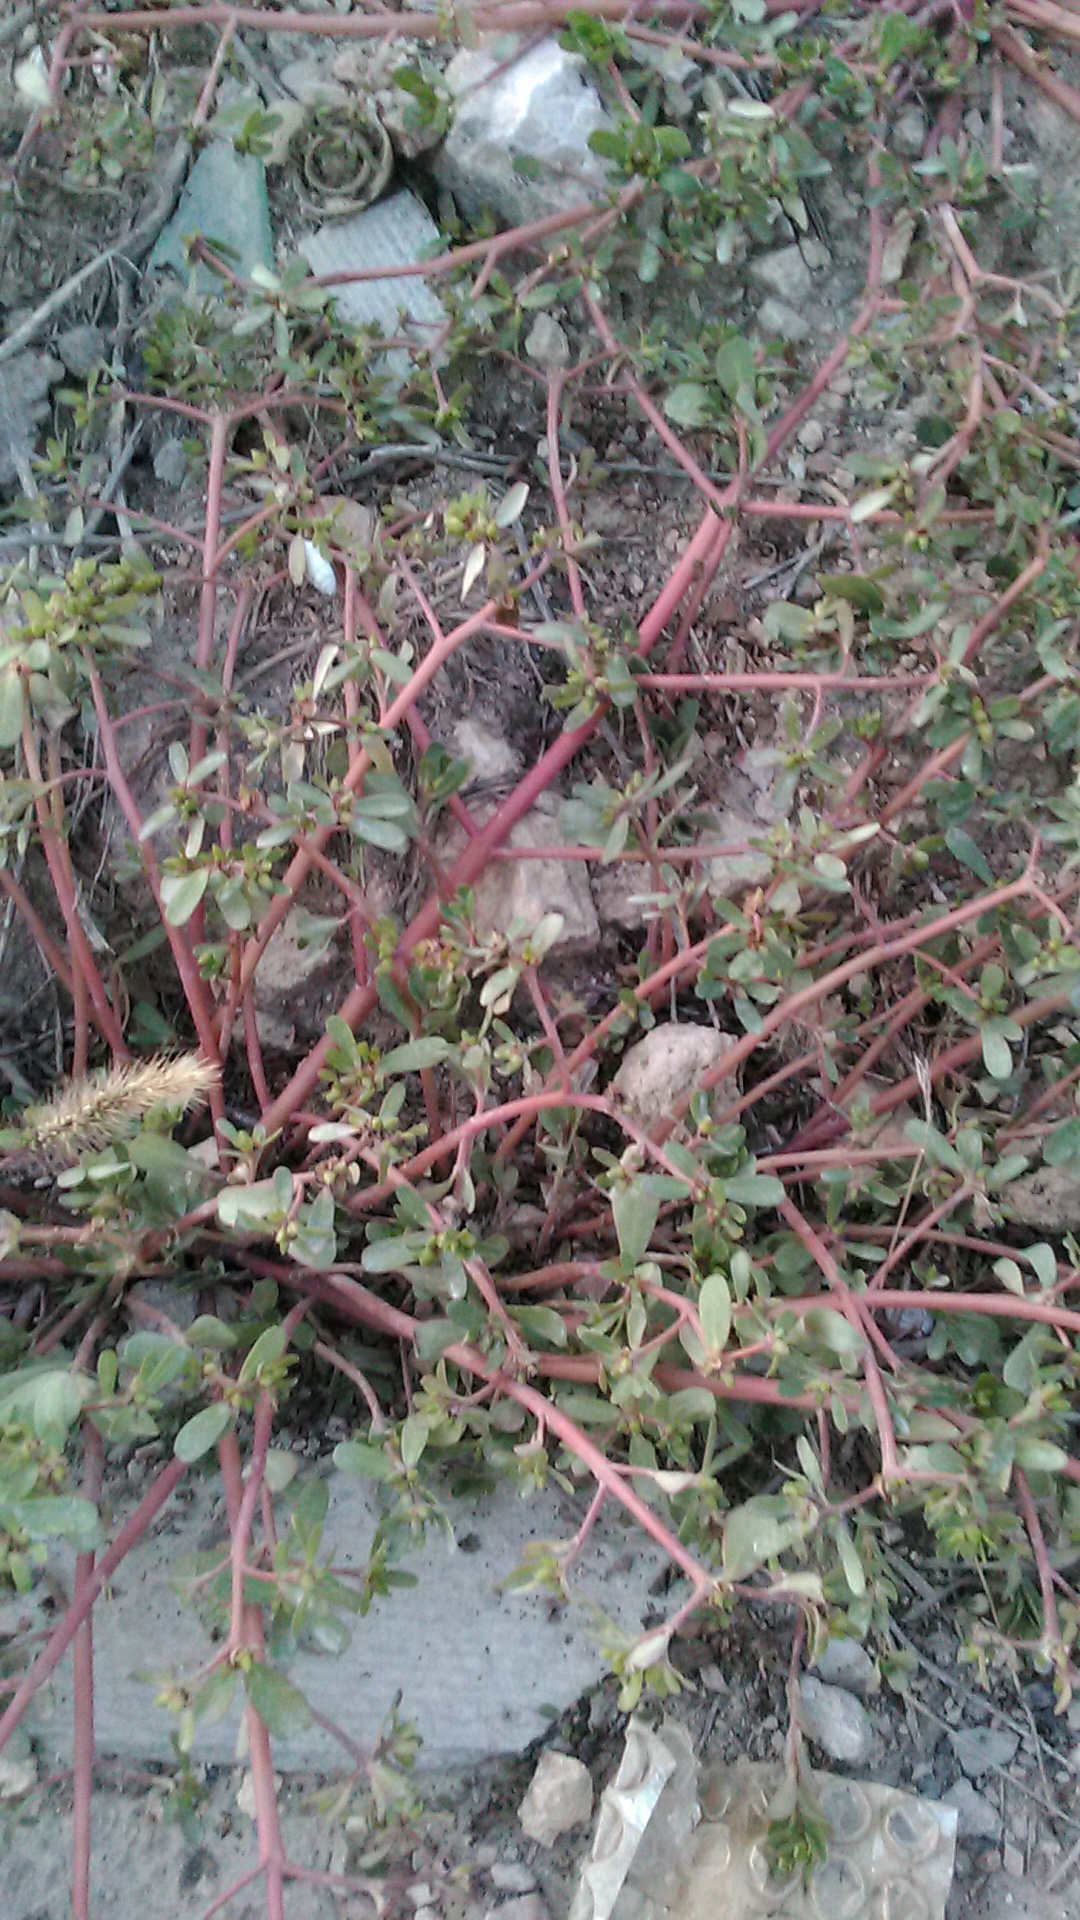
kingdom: Plantae
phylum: Tracheophyta
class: Magnoliopsida
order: Caryophyllales
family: Portulacaceae
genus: Portulaca
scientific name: Portulaca oleracea
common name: Common purslane
